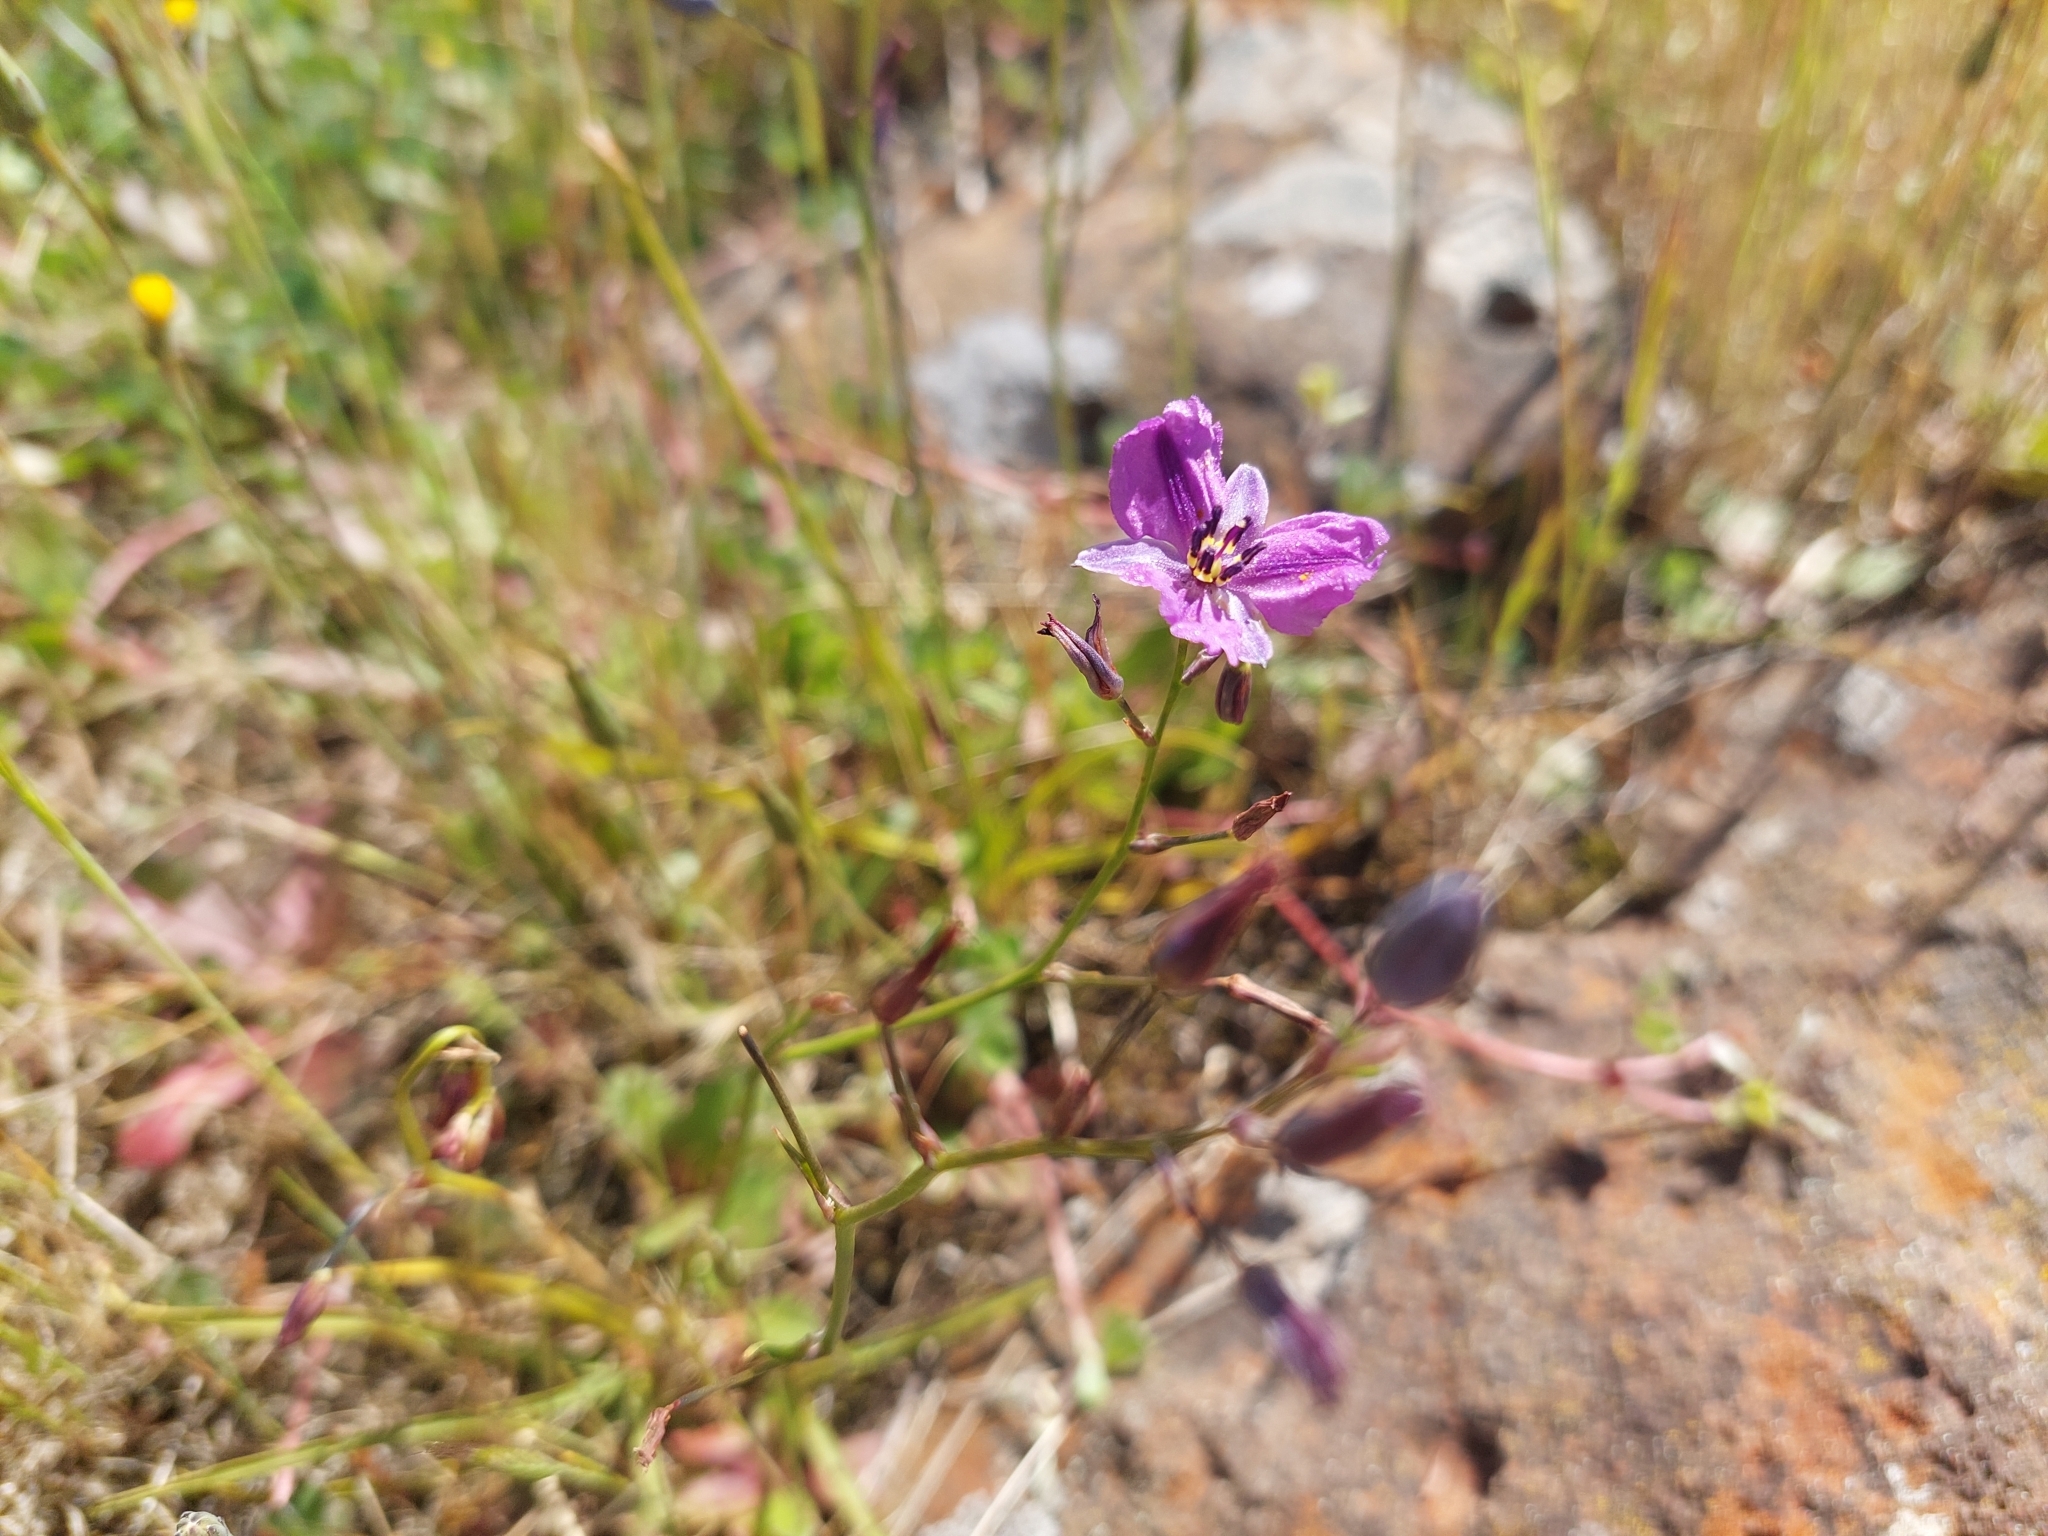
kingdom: Plantae
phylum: Tracheophyta
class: Liliopsida
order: Asparagales
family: Asparagaceae
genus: Arthropodium
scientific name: Arthropodium strictum
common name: Chocolate-lily
